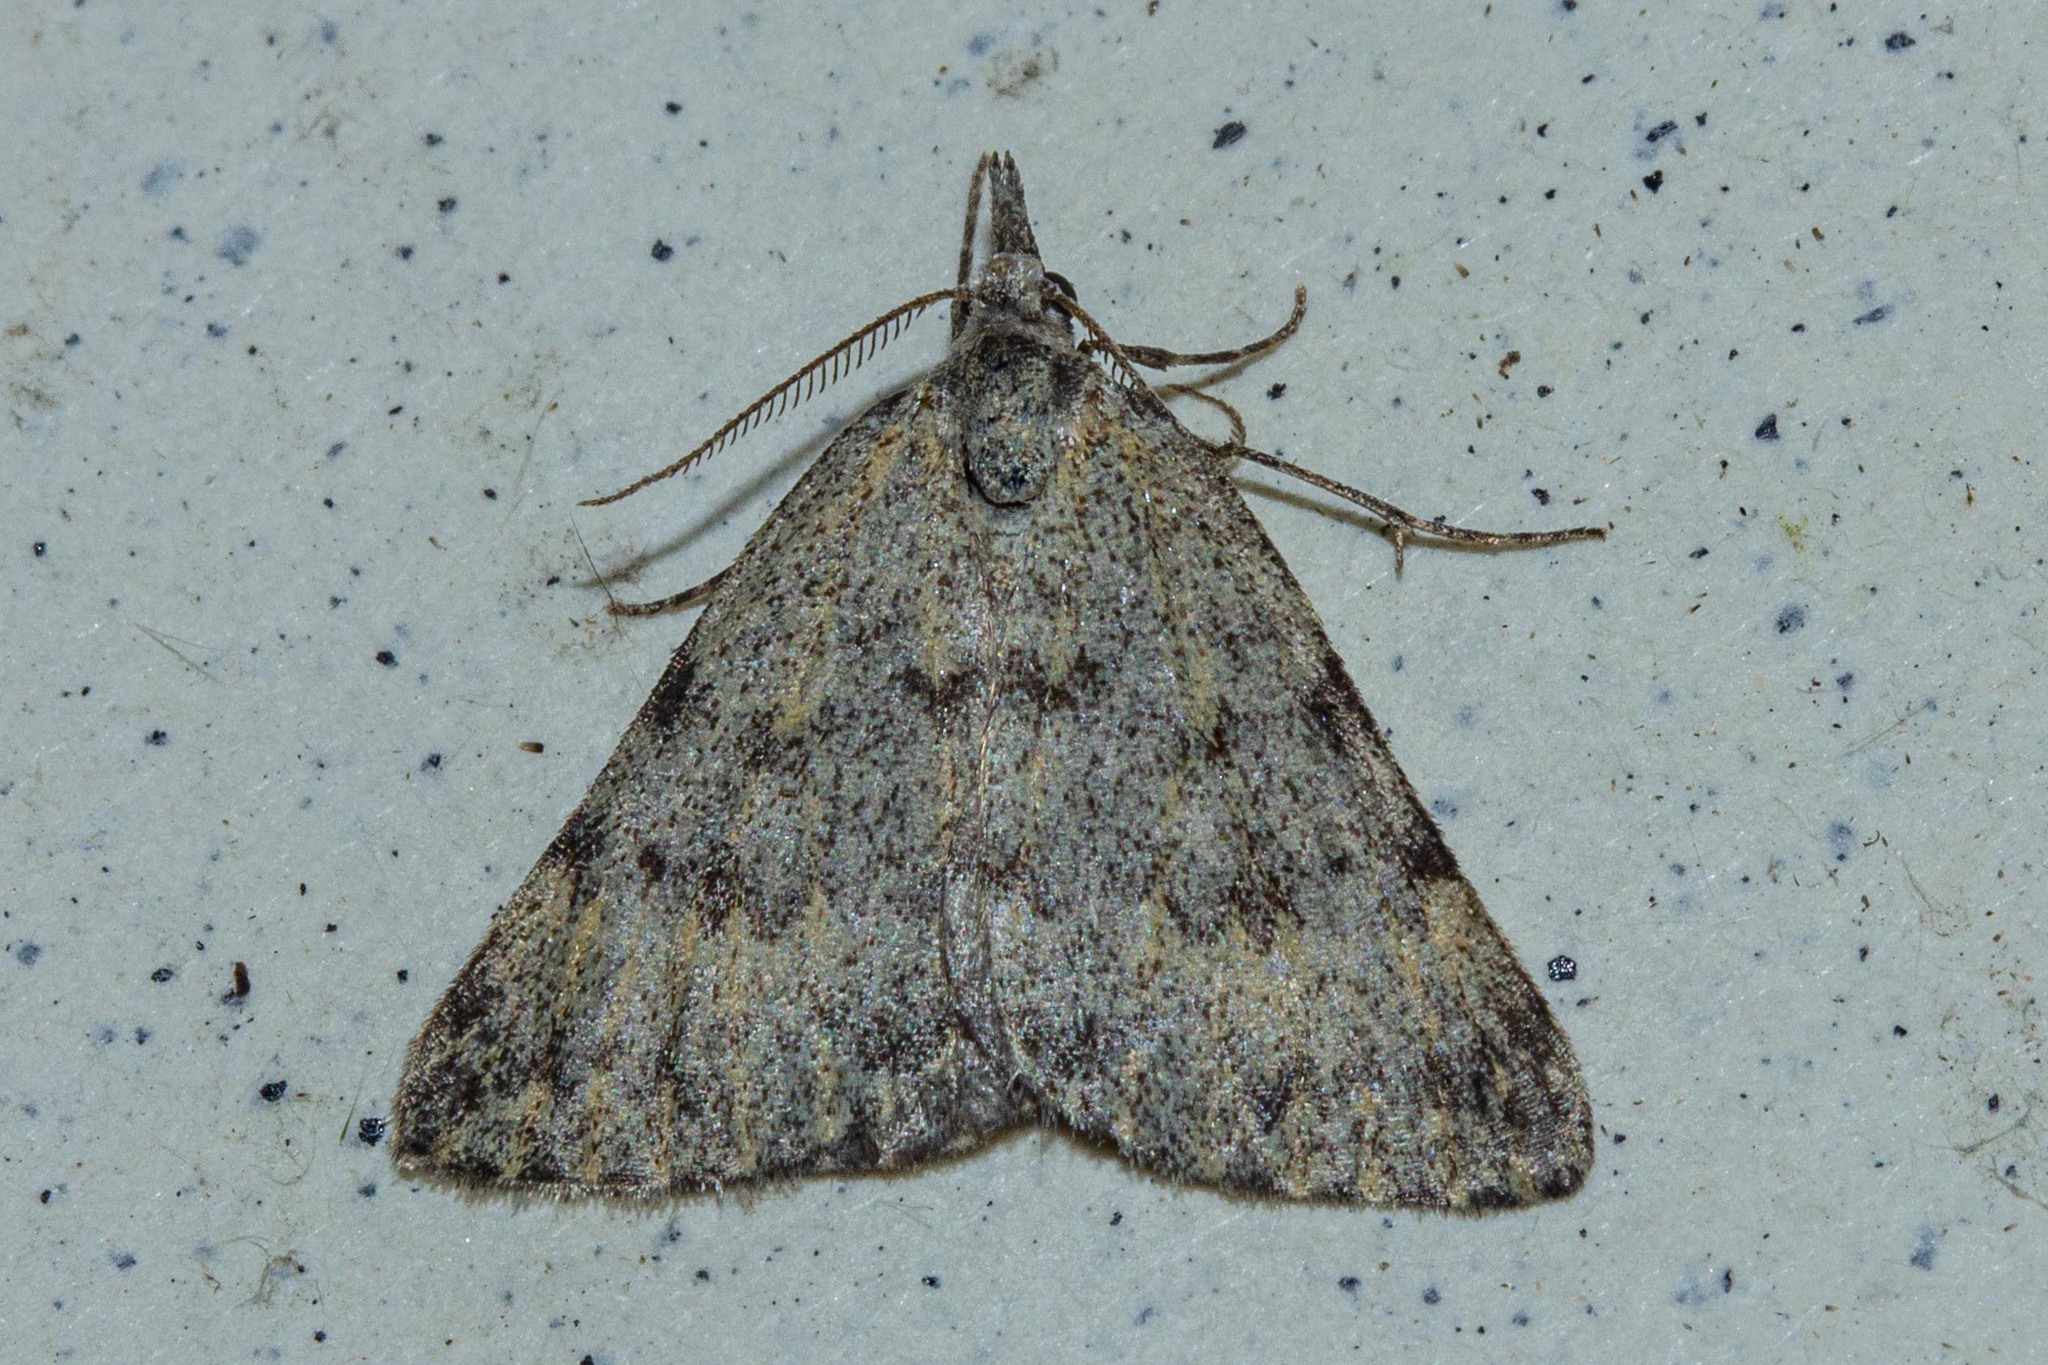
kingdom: Animalia
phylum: Arthropoda
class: Insecta
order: Lepidoptera
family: Geometridae
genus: Dichromodes
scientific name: Dichromodes sphaeriata
